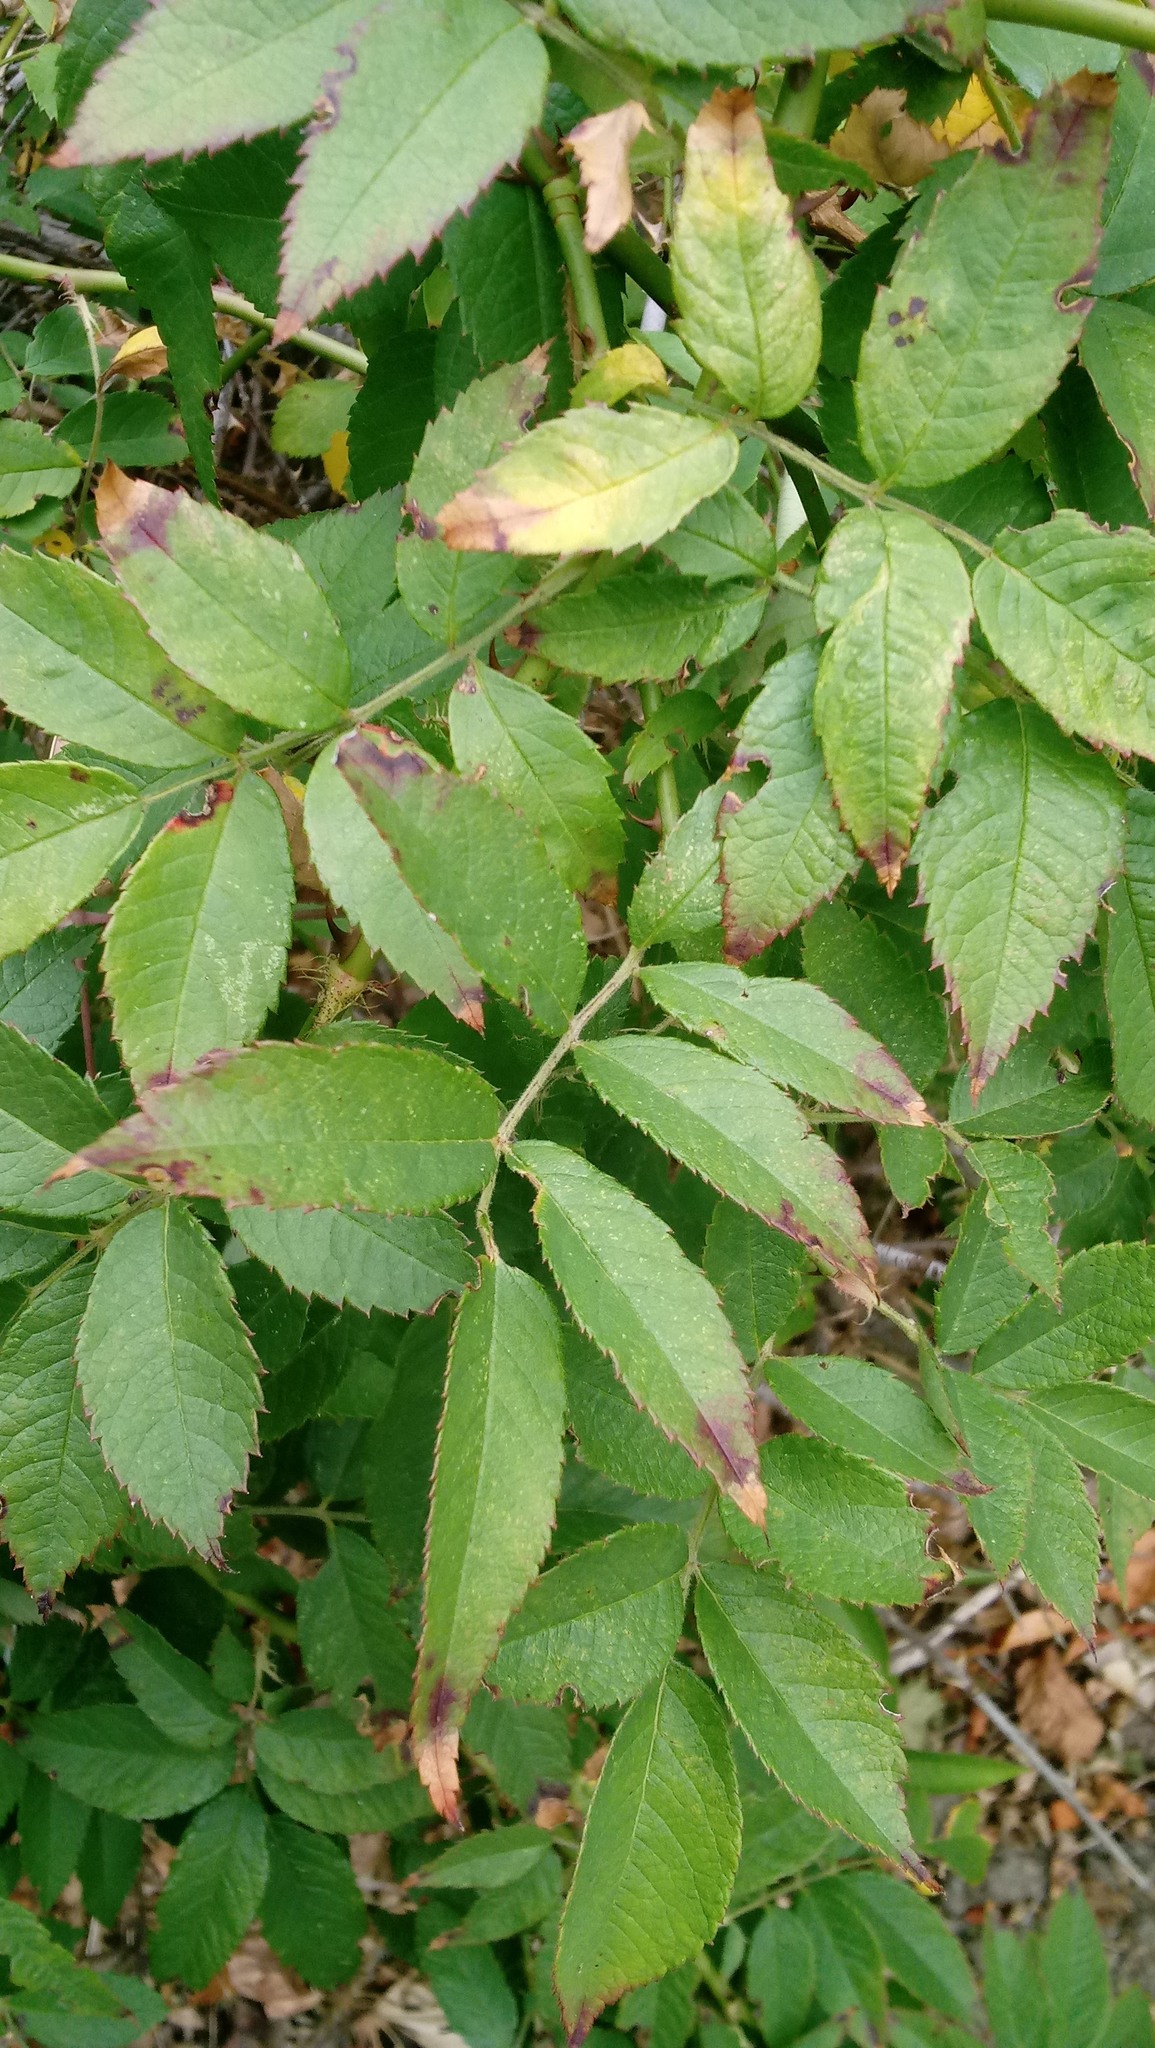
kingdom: Plantae
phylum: Tracheophyta
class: Magnoliopsida
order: Rosales
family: Rosaceae
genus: Rosa
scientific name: Rosa multiflora
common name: Multiflora rose
